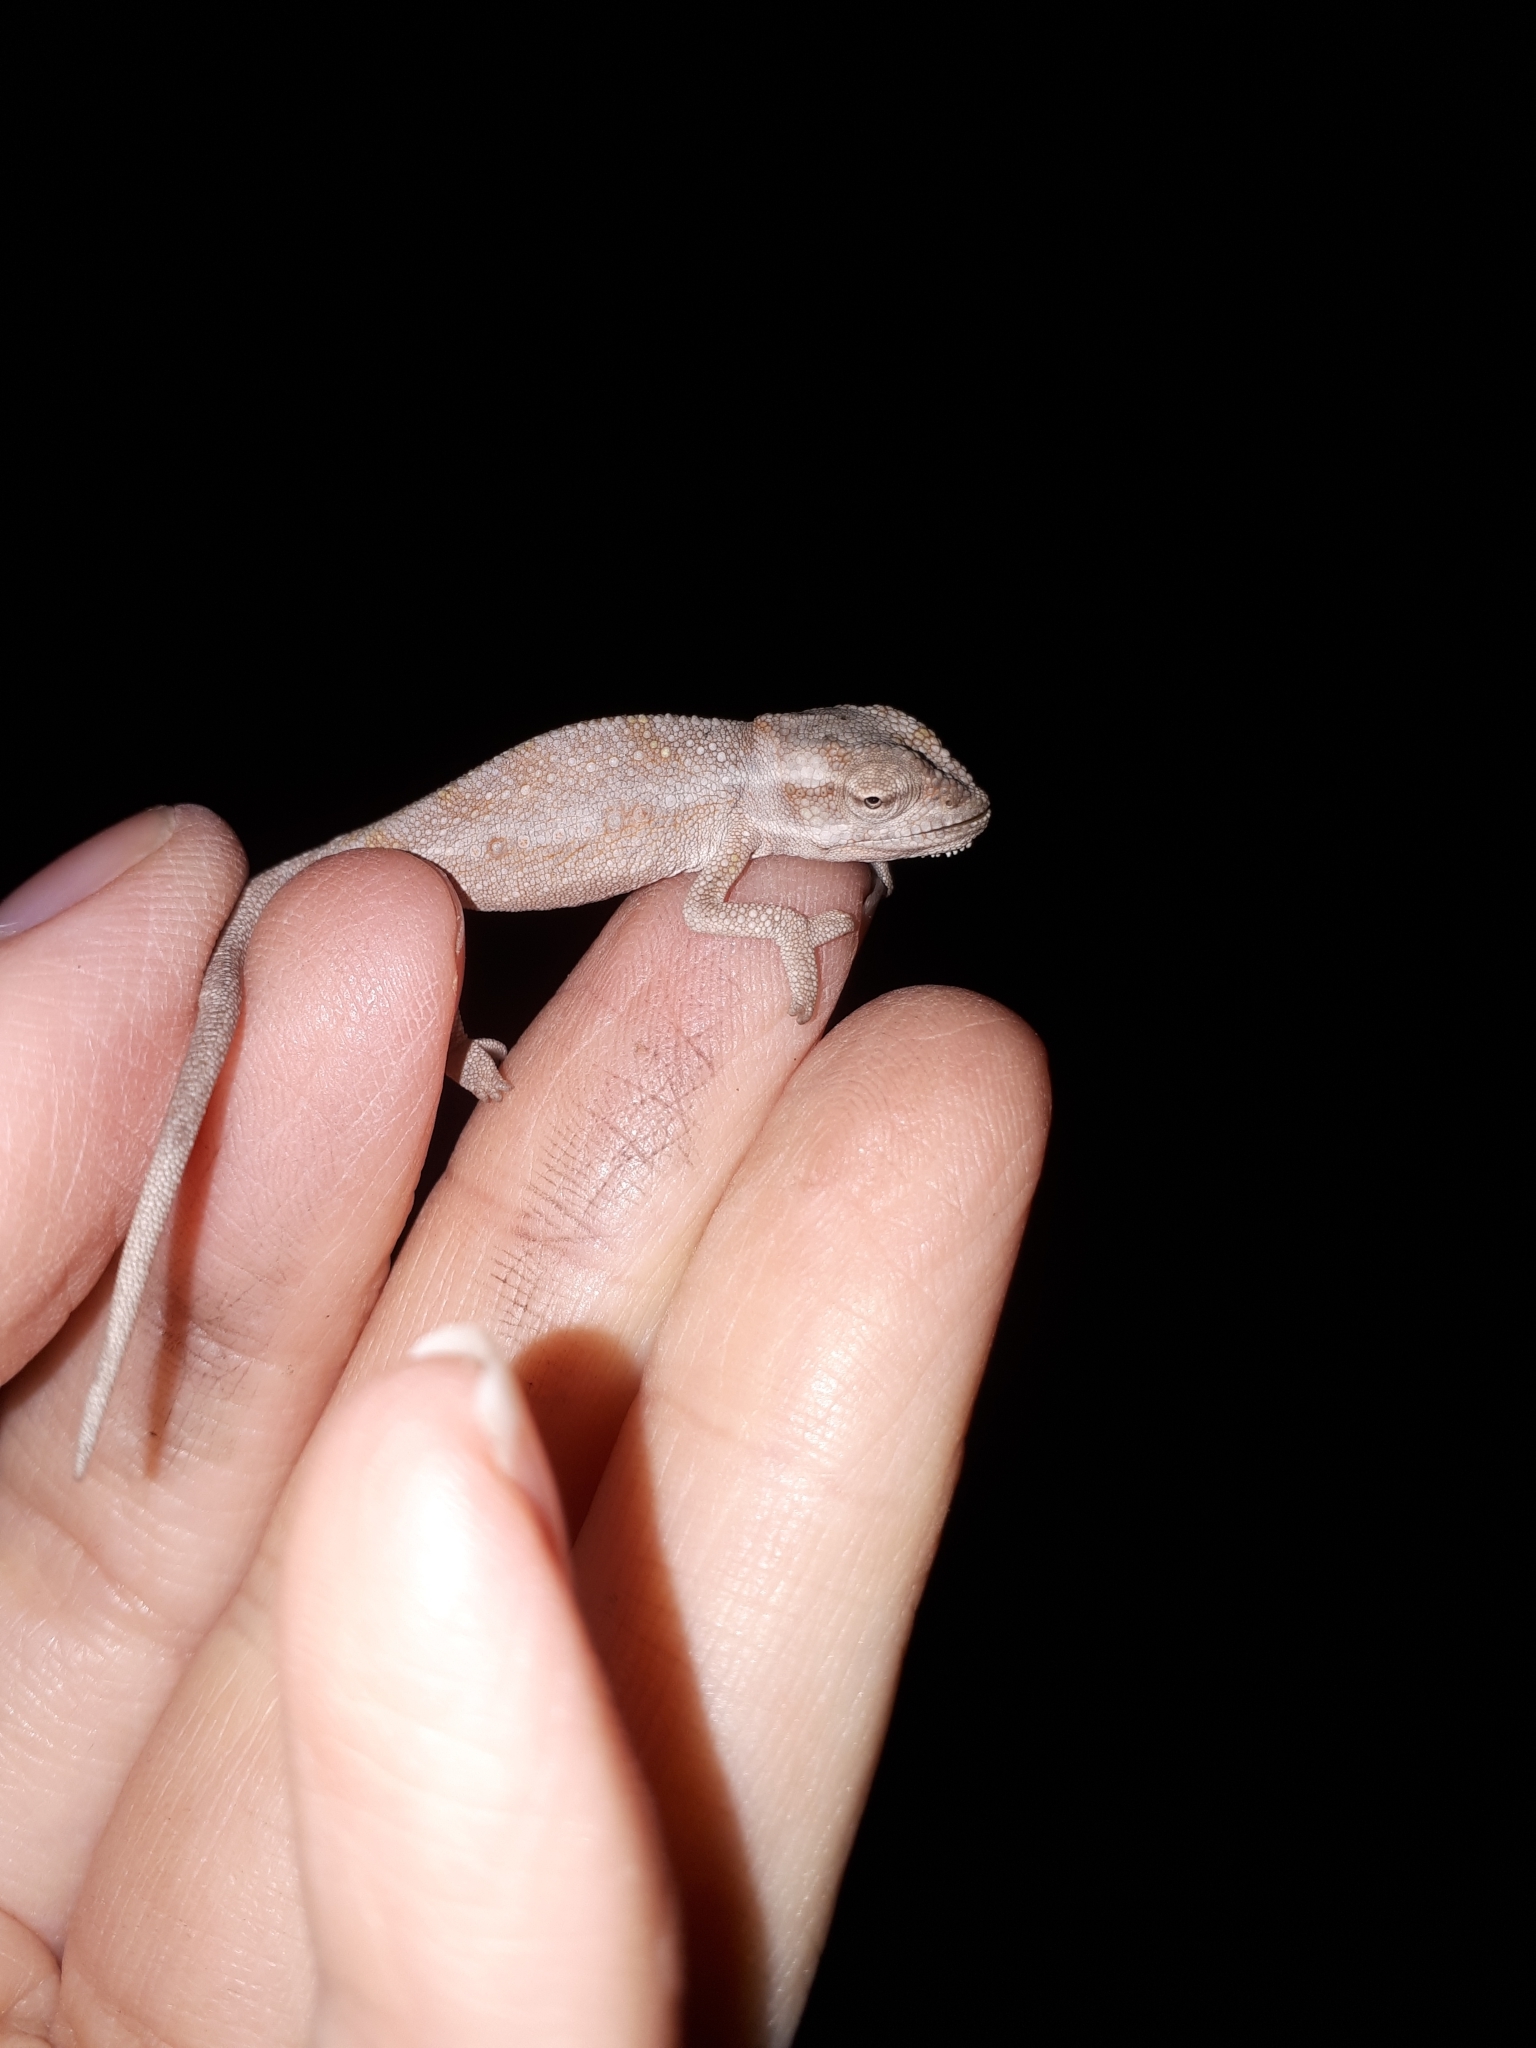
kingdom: Animalia
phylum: Chordata
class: Squamata
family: Chamaeleonidae
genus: Bradypodion
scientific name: Bradypodion pumilum
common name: Cape dwarf chameleon
